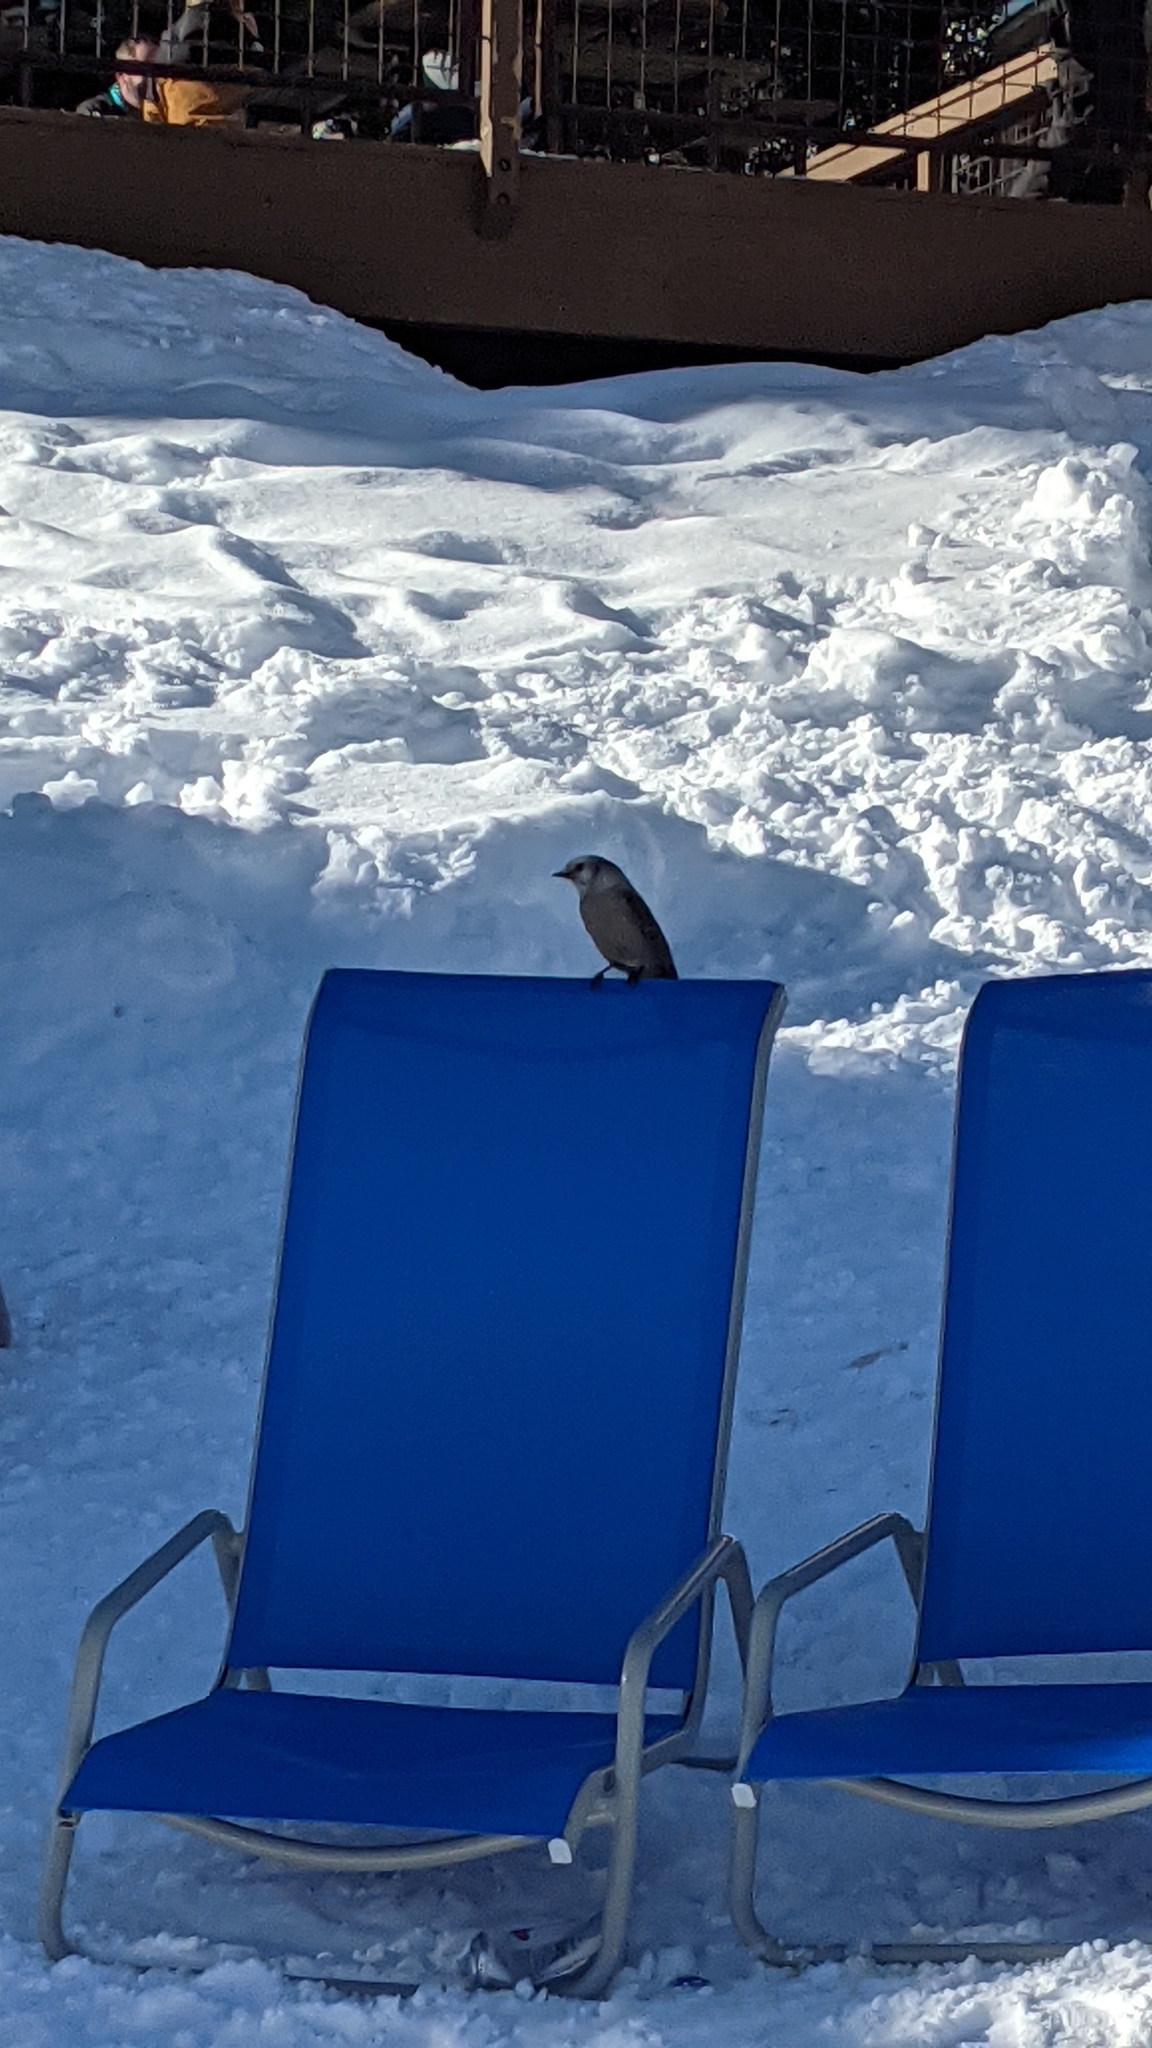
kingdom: Animalia
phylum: Chordata
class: Aves
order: Passeriformes
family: Corvidae
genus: Perisoreus
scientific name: Perisoreus canadensis
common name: Gray jay
